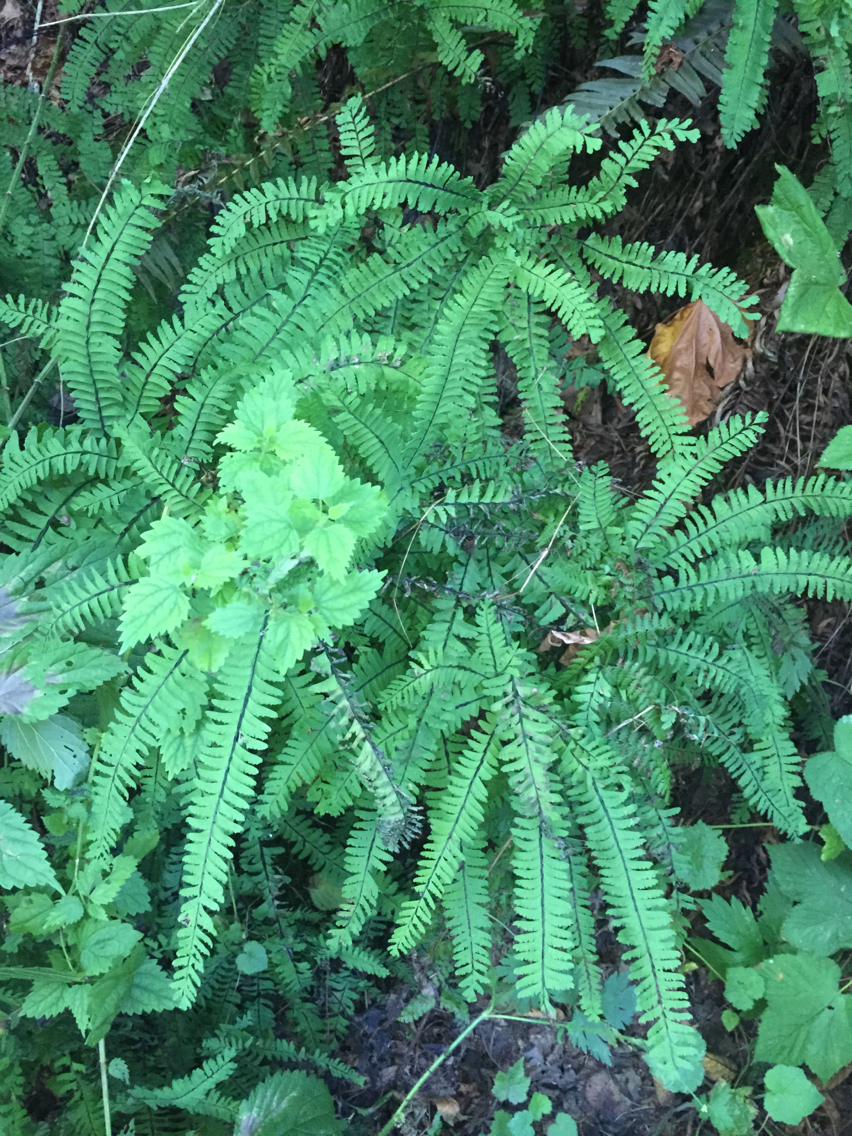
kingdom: Plantae
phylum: Tracheophyta
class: Polypodiopsida
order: Polypodiales
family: Pteridaceae
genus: Adiantum
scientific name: Adiantum aleuticum
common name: Aleutian maidenhair fern
